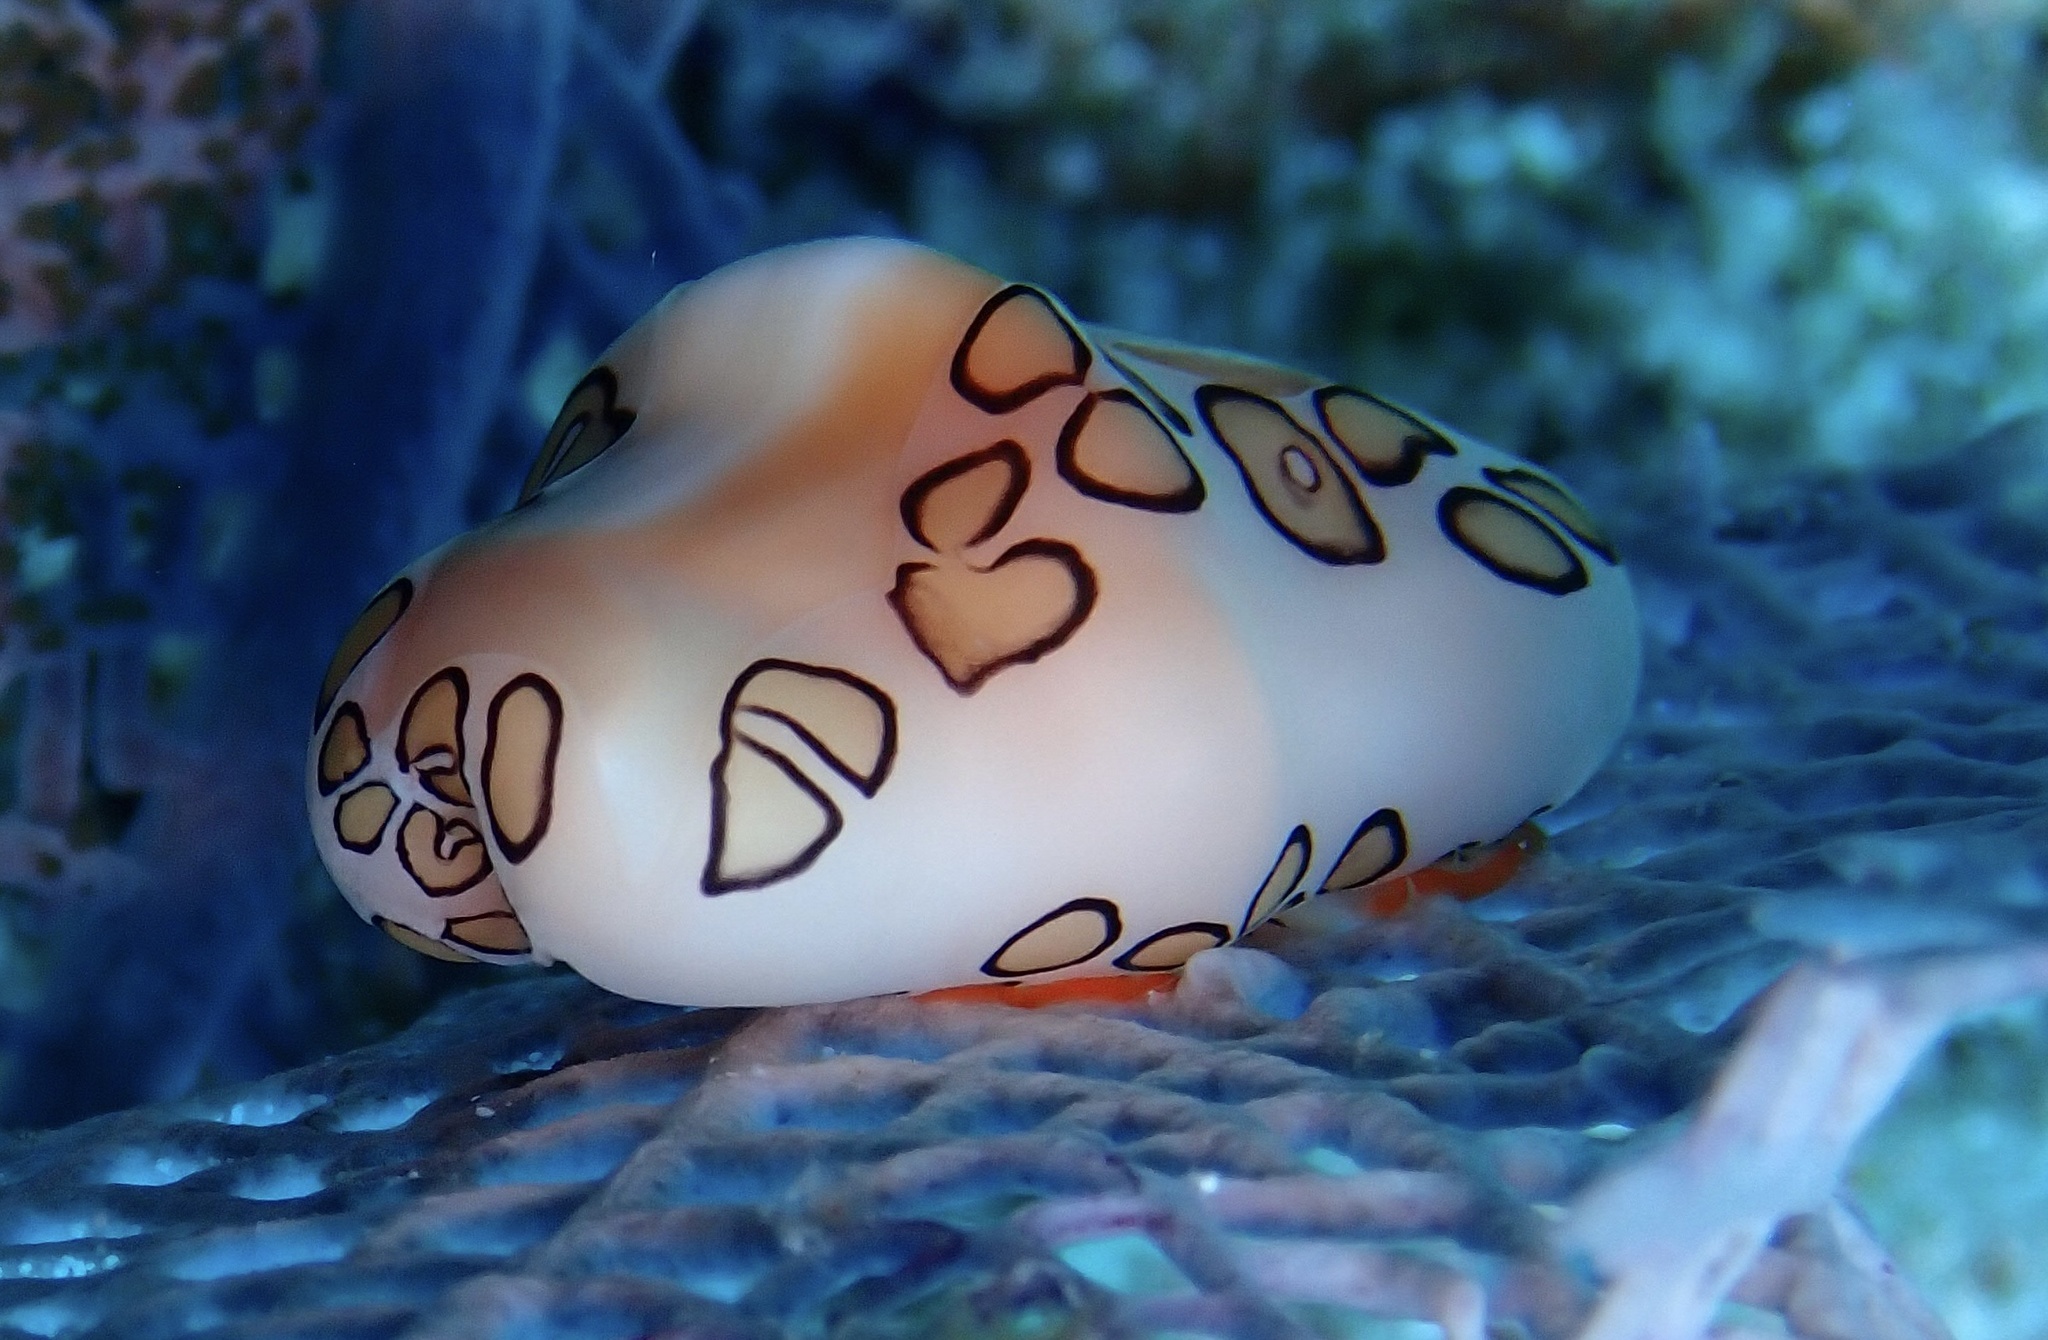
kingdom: Animalia
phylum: Mollusca
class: Gastropoda
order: Littorinimorpha
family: Ovulidae
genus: Cyphoma
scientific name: Cyphoma gibbosum
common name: Flamingo tongue
